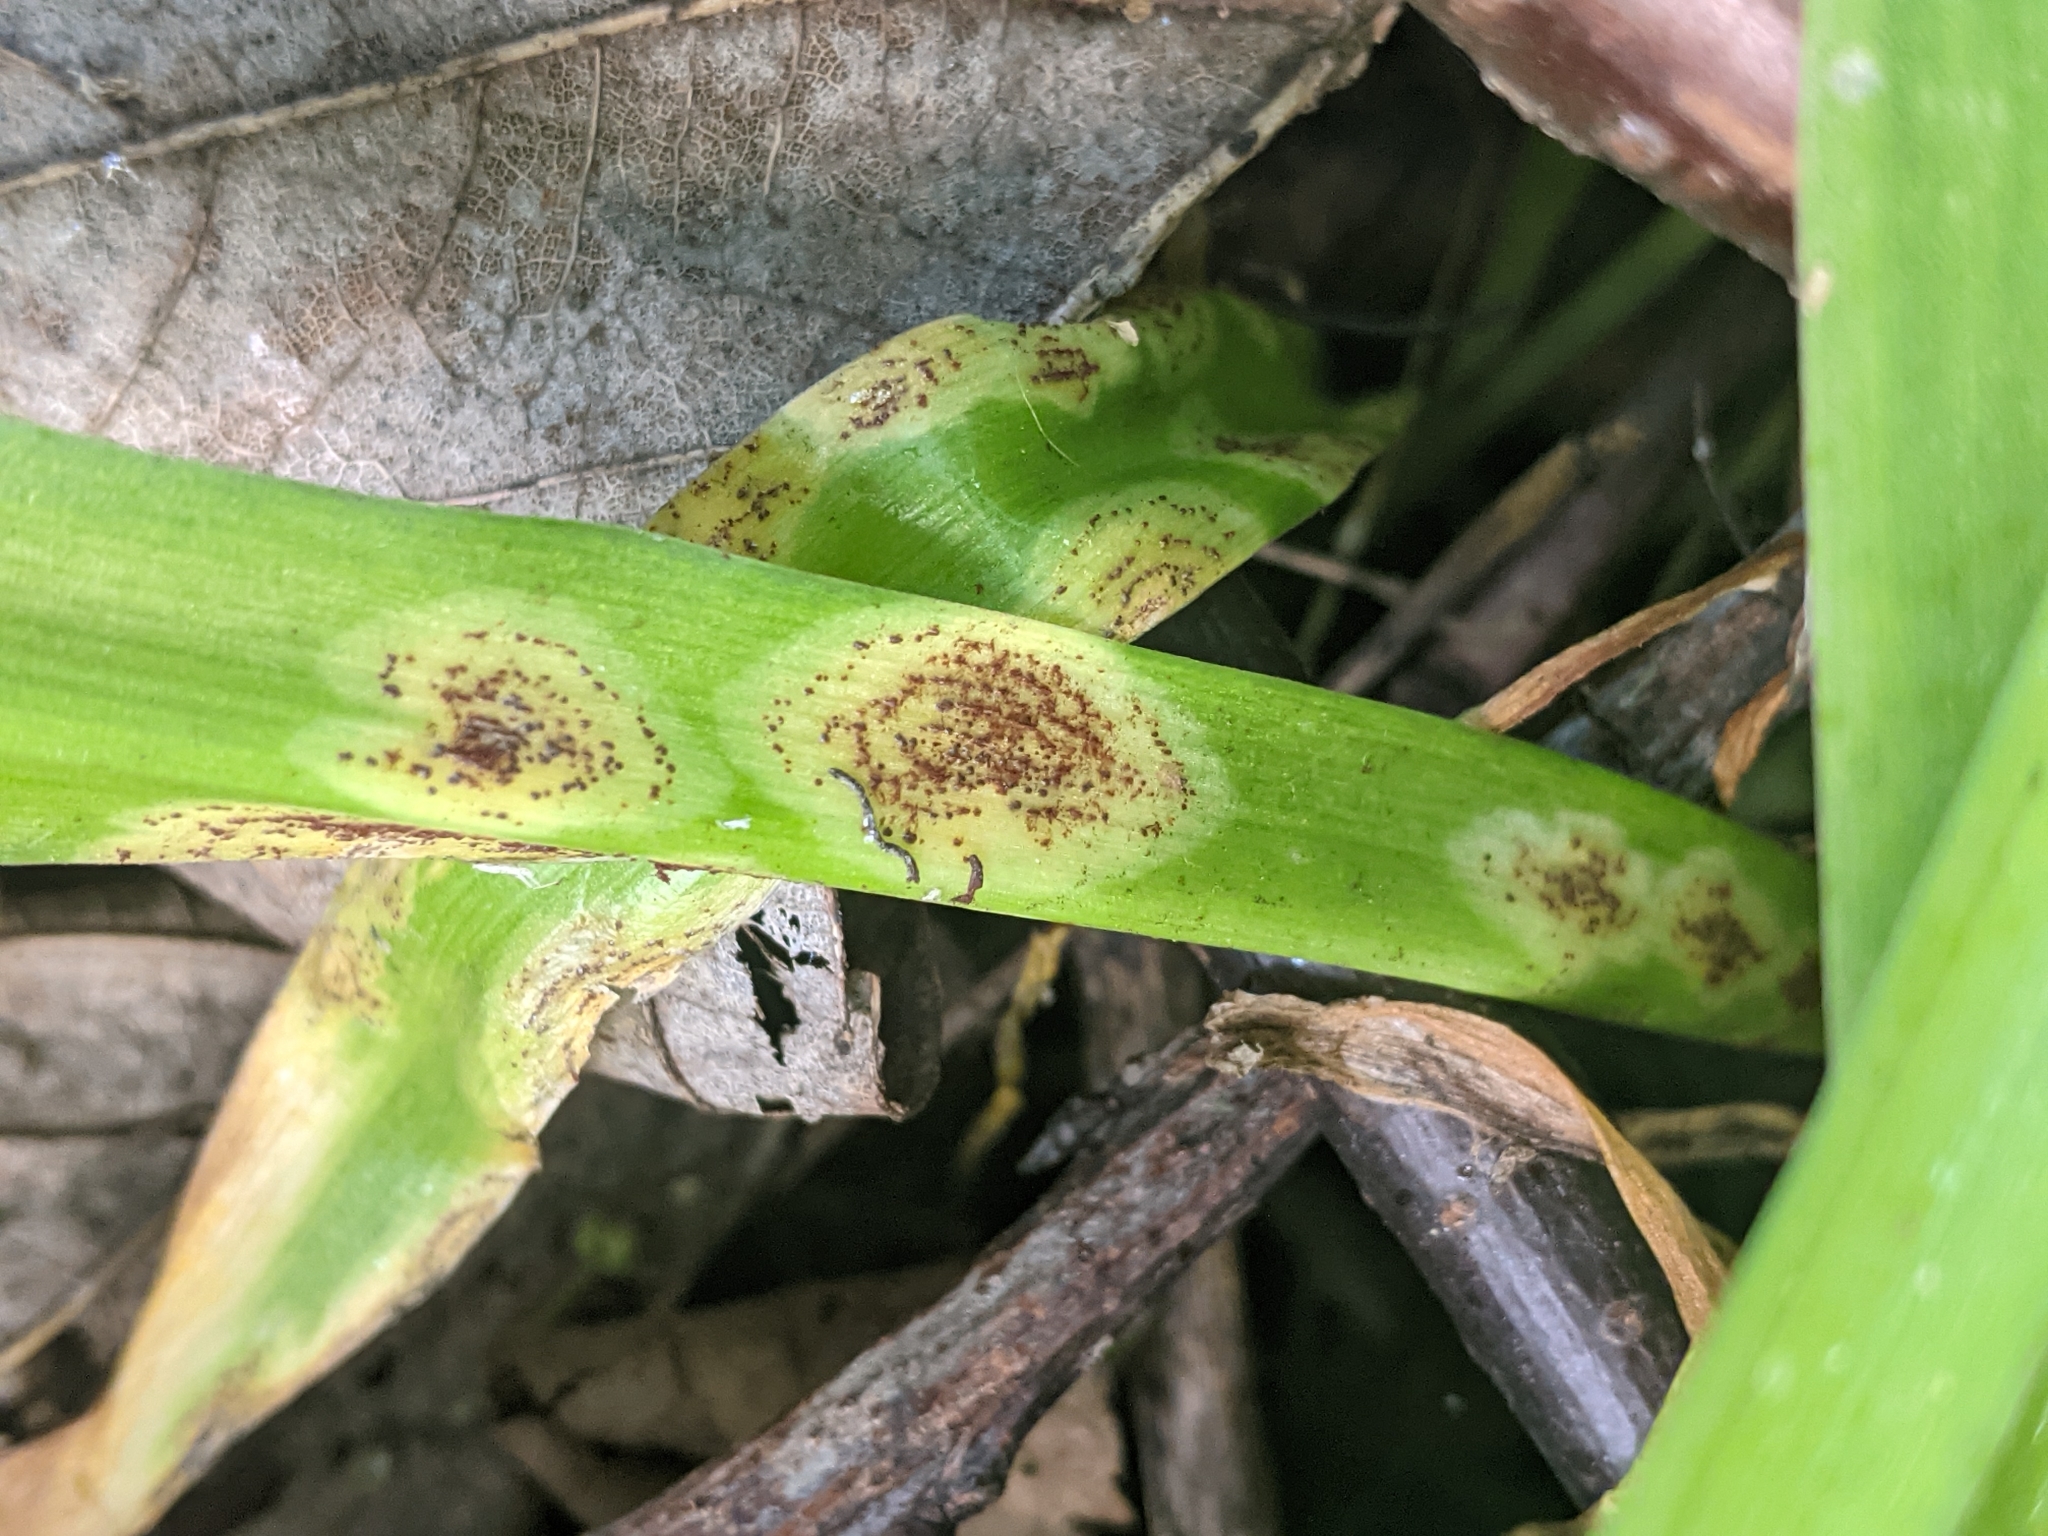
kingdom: Fungi
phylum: Basidiomycota
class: Pucciniomycetes
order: Pucciniales
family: Pucciniaceae
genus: Uromyces
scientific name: Uromyces hyacinthi
